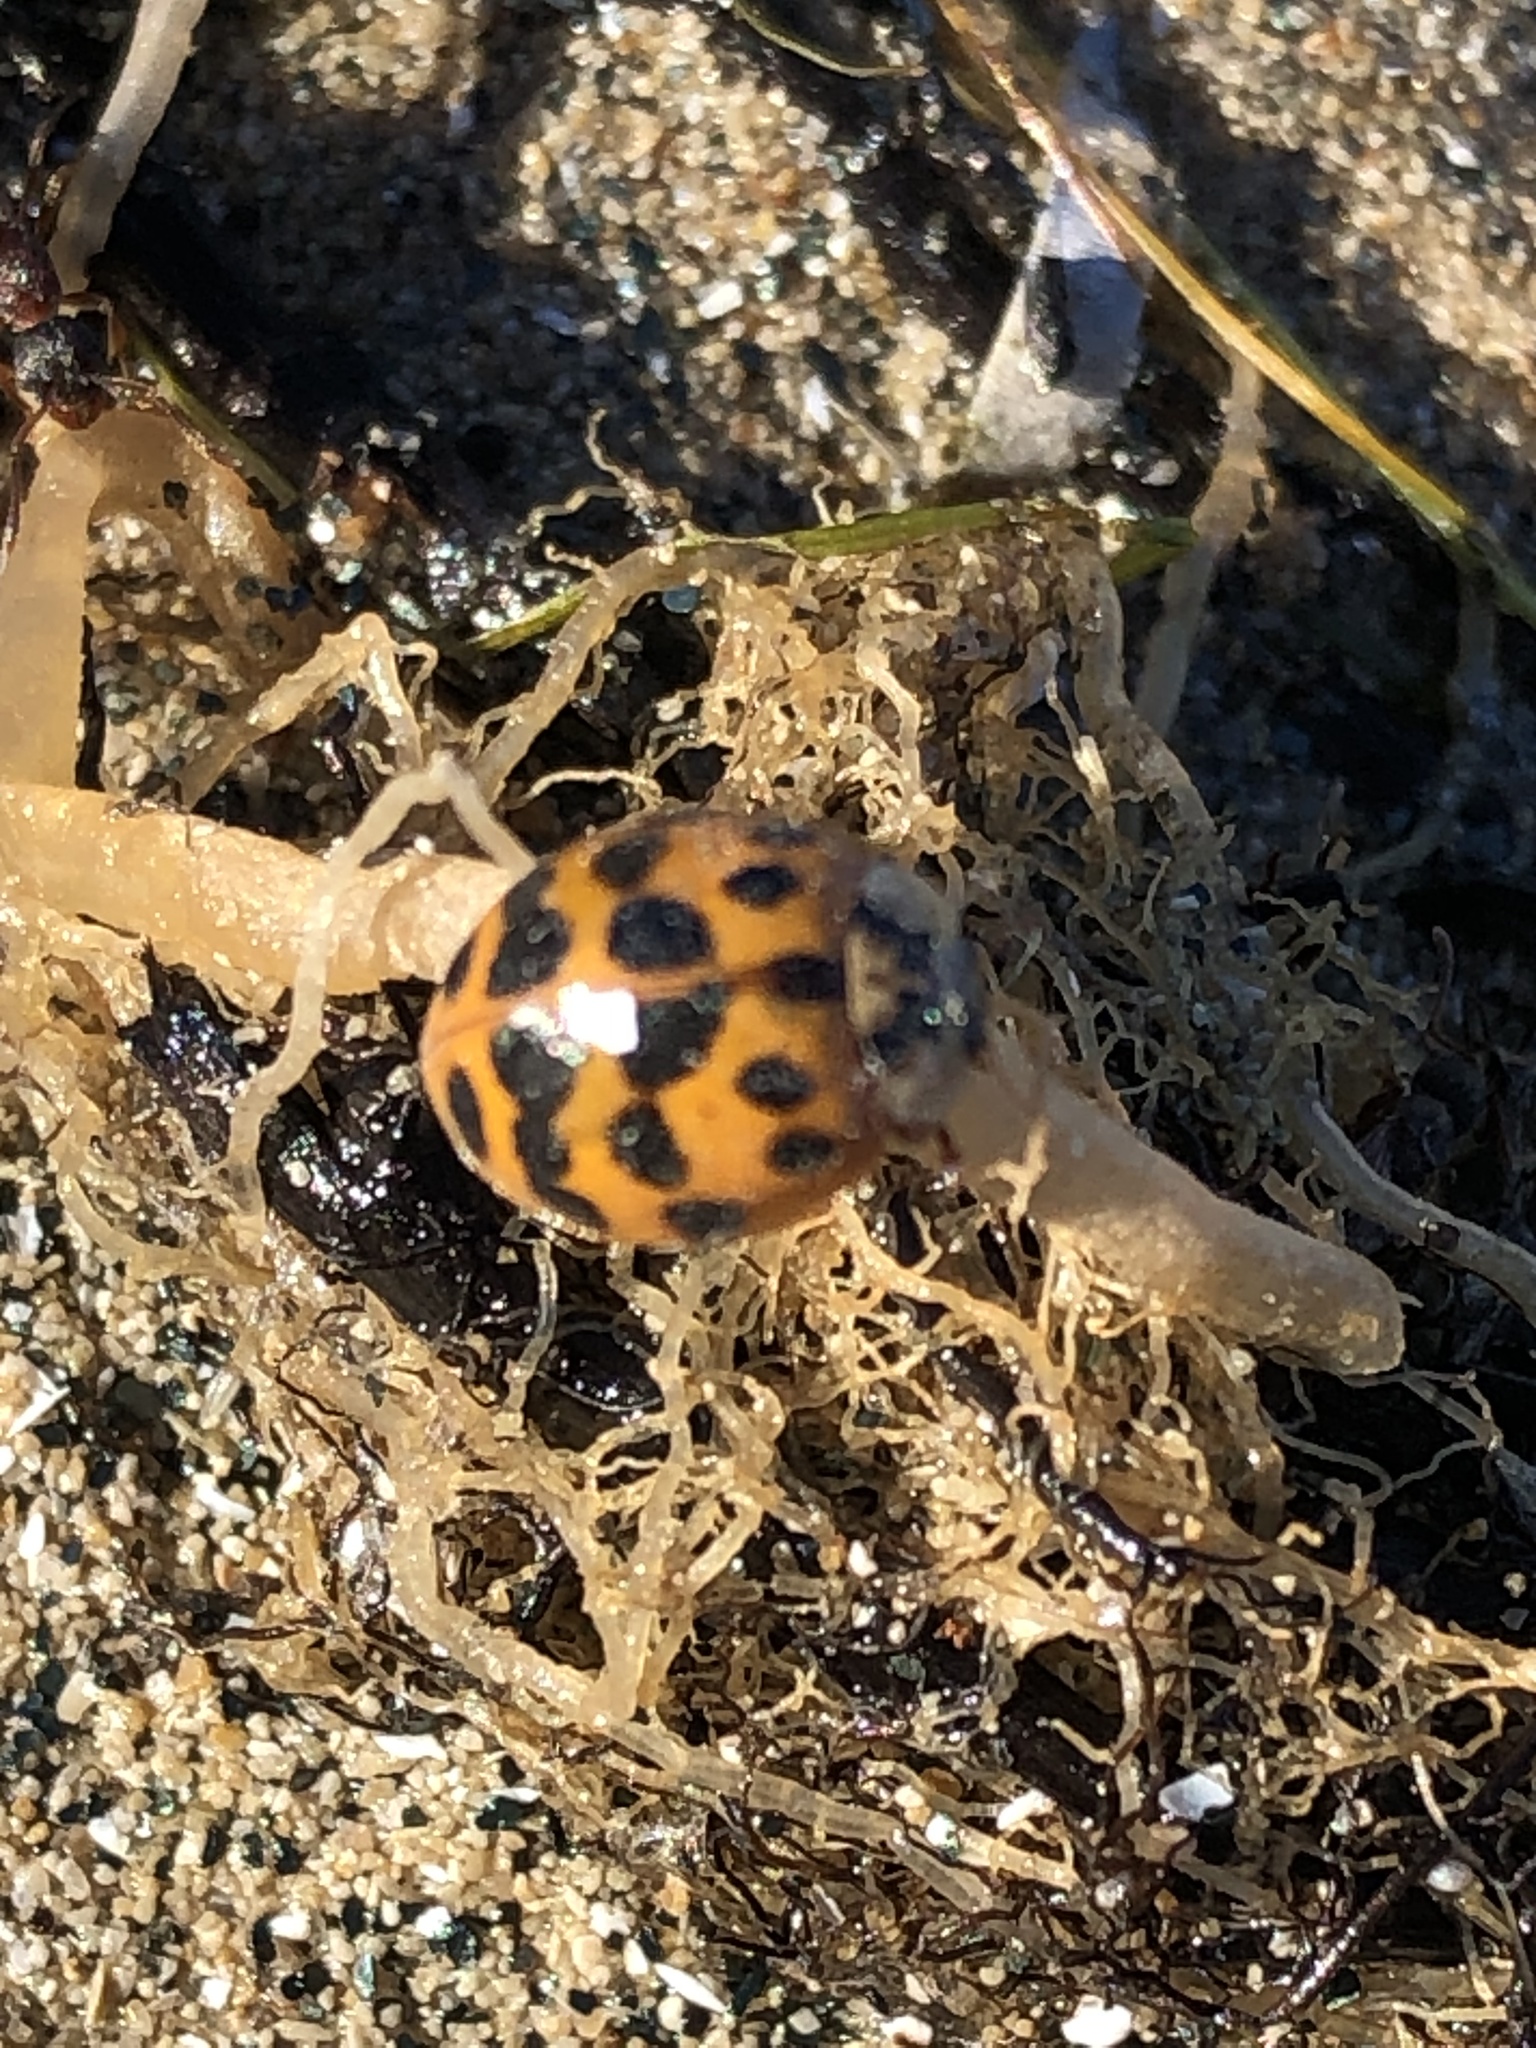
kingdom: Animalia
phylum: Arthropoda
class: Insecta
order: Coleoptera
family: Coccinellidae
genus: Harmonia
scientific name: Harmonia axyridis
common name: Harlequin ladybird
